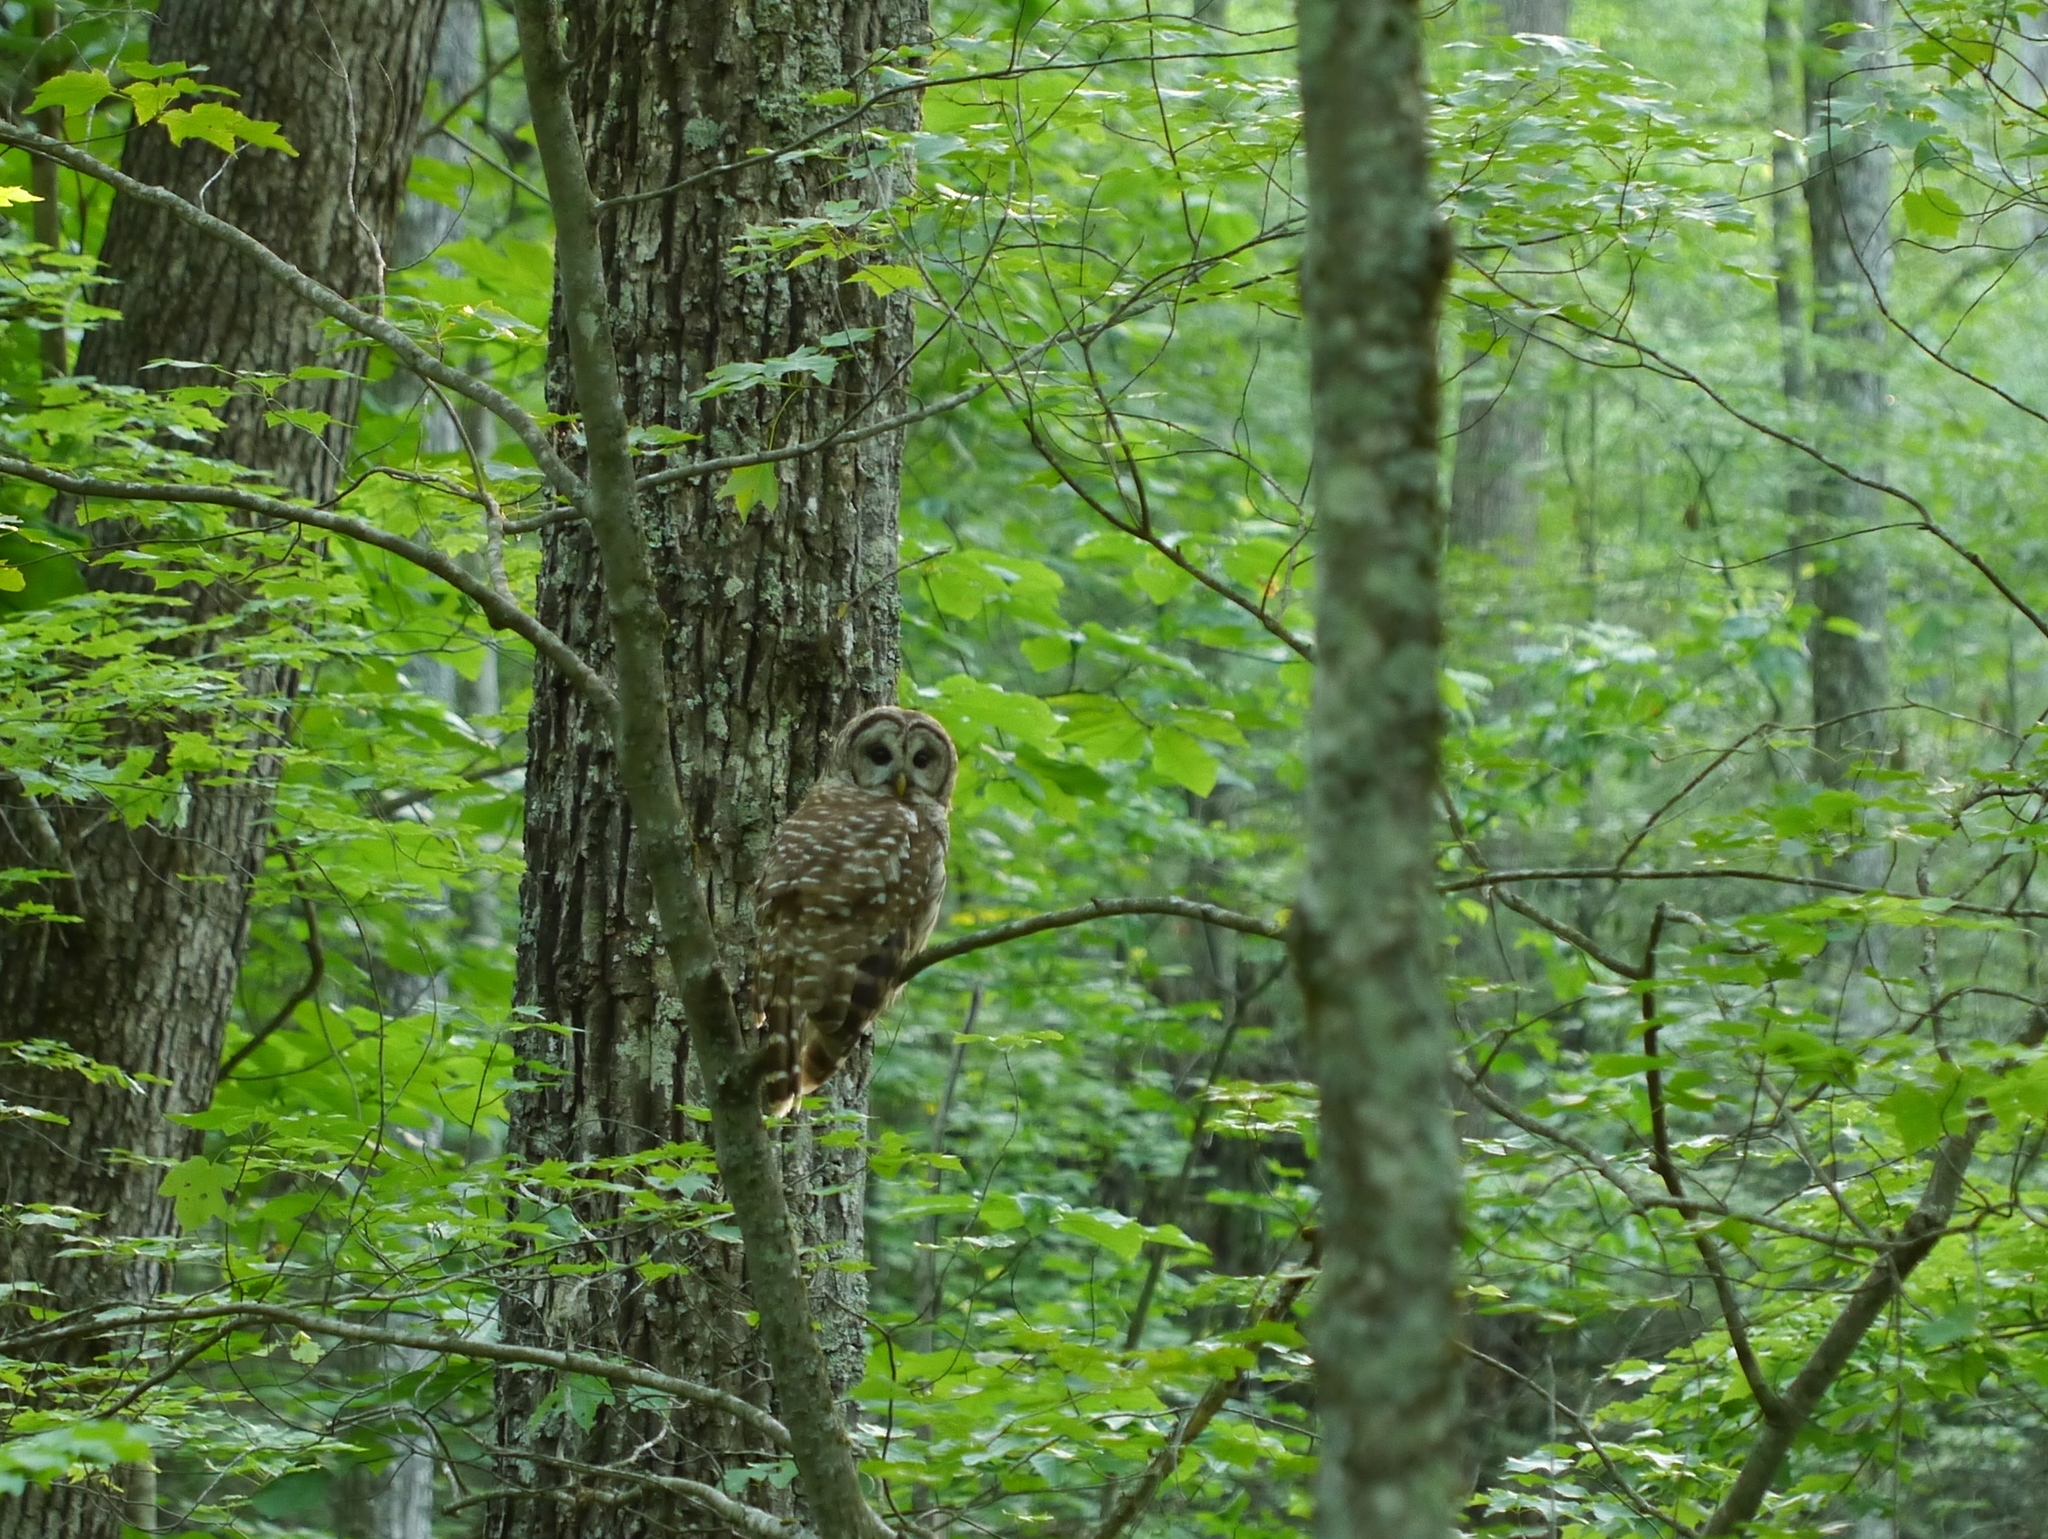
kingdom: Animalia
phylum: Chordata
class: Aves
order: Strigiformes
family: Strigidae
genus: Strix
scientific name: Strix varia
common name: Barred owl
